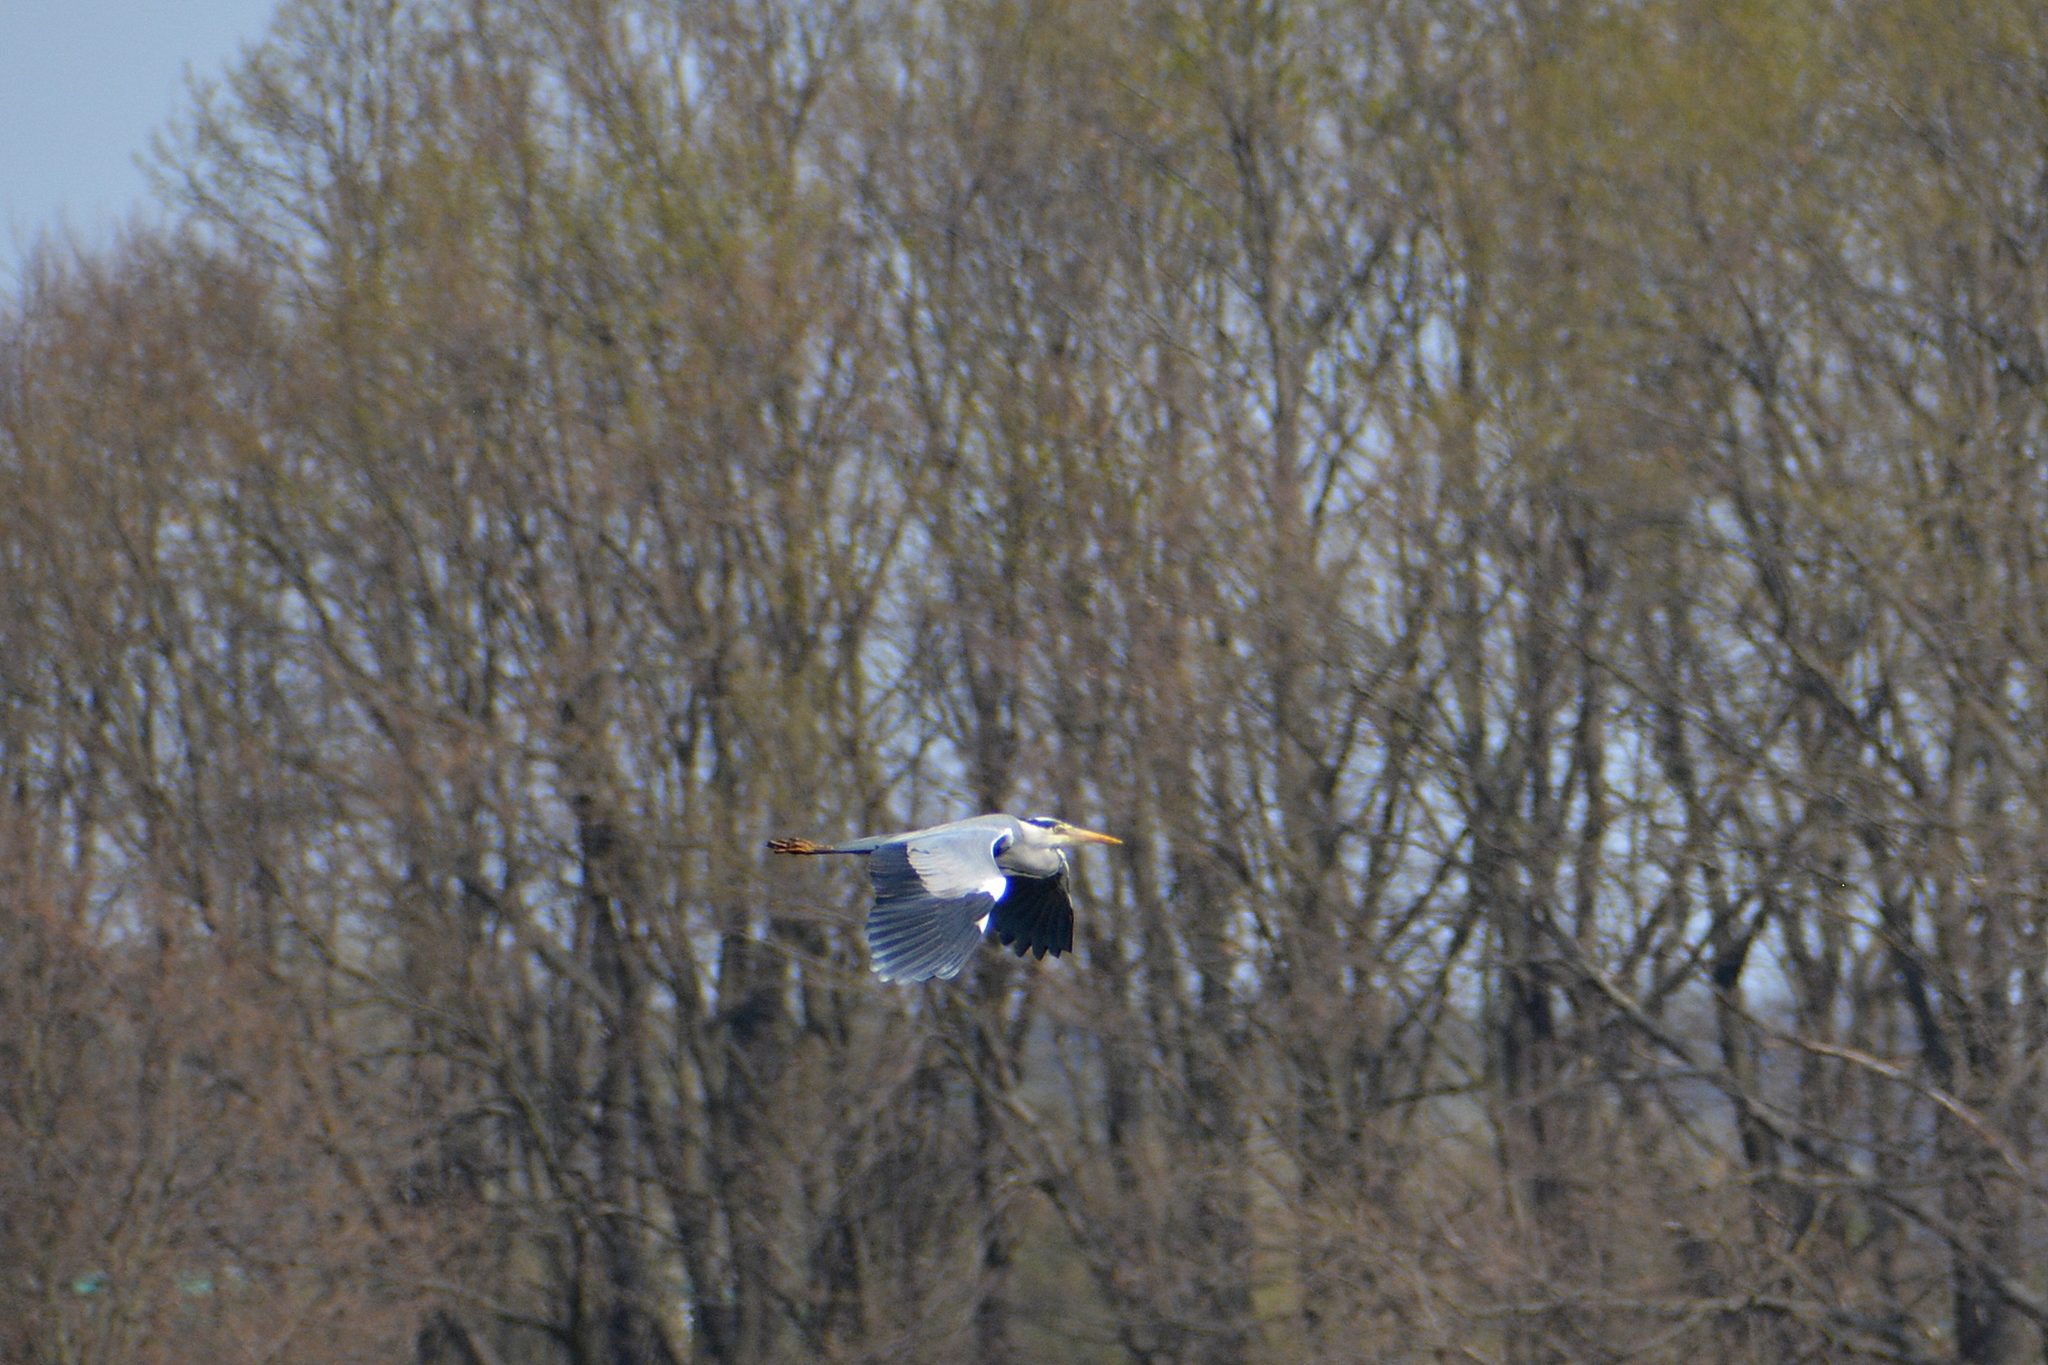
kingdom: Animalia
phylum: Chordata
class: Aves
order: Pelecaniformes
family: Ardeidae
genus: Ardea
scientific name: Ardea cinerea
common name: Grey heron
